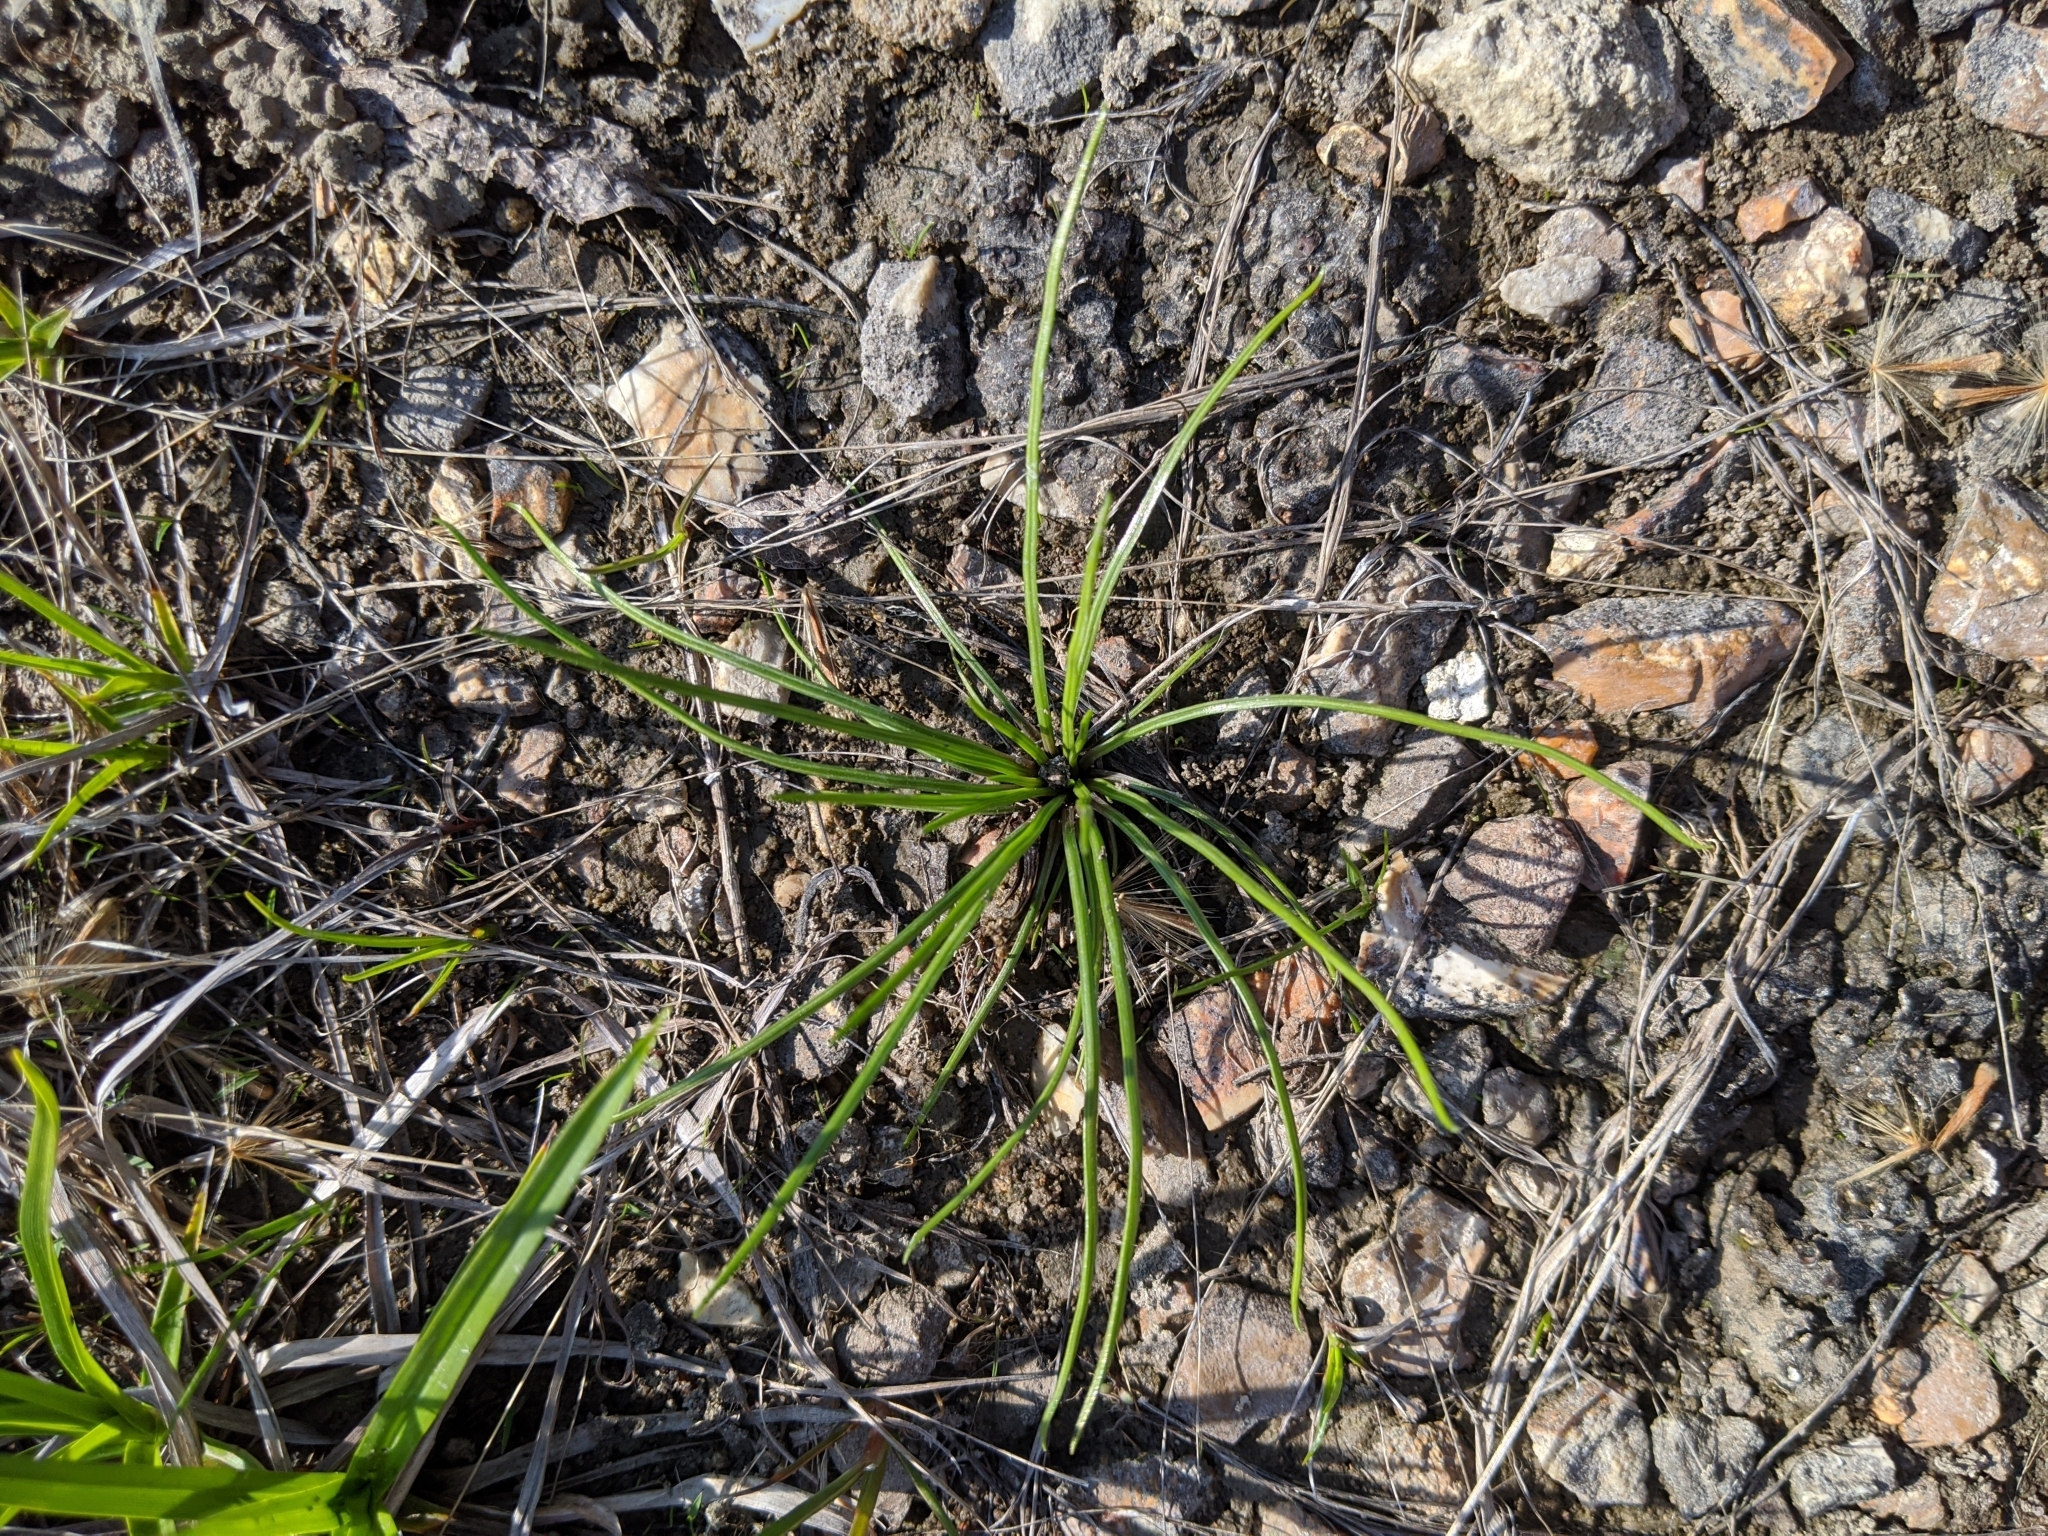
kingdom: Plantae
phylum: Tracheophyta
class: Lycopodiopsida
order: Isoetales
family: Isoetaceae
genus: Isoetes
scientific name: Isoetes butleri
